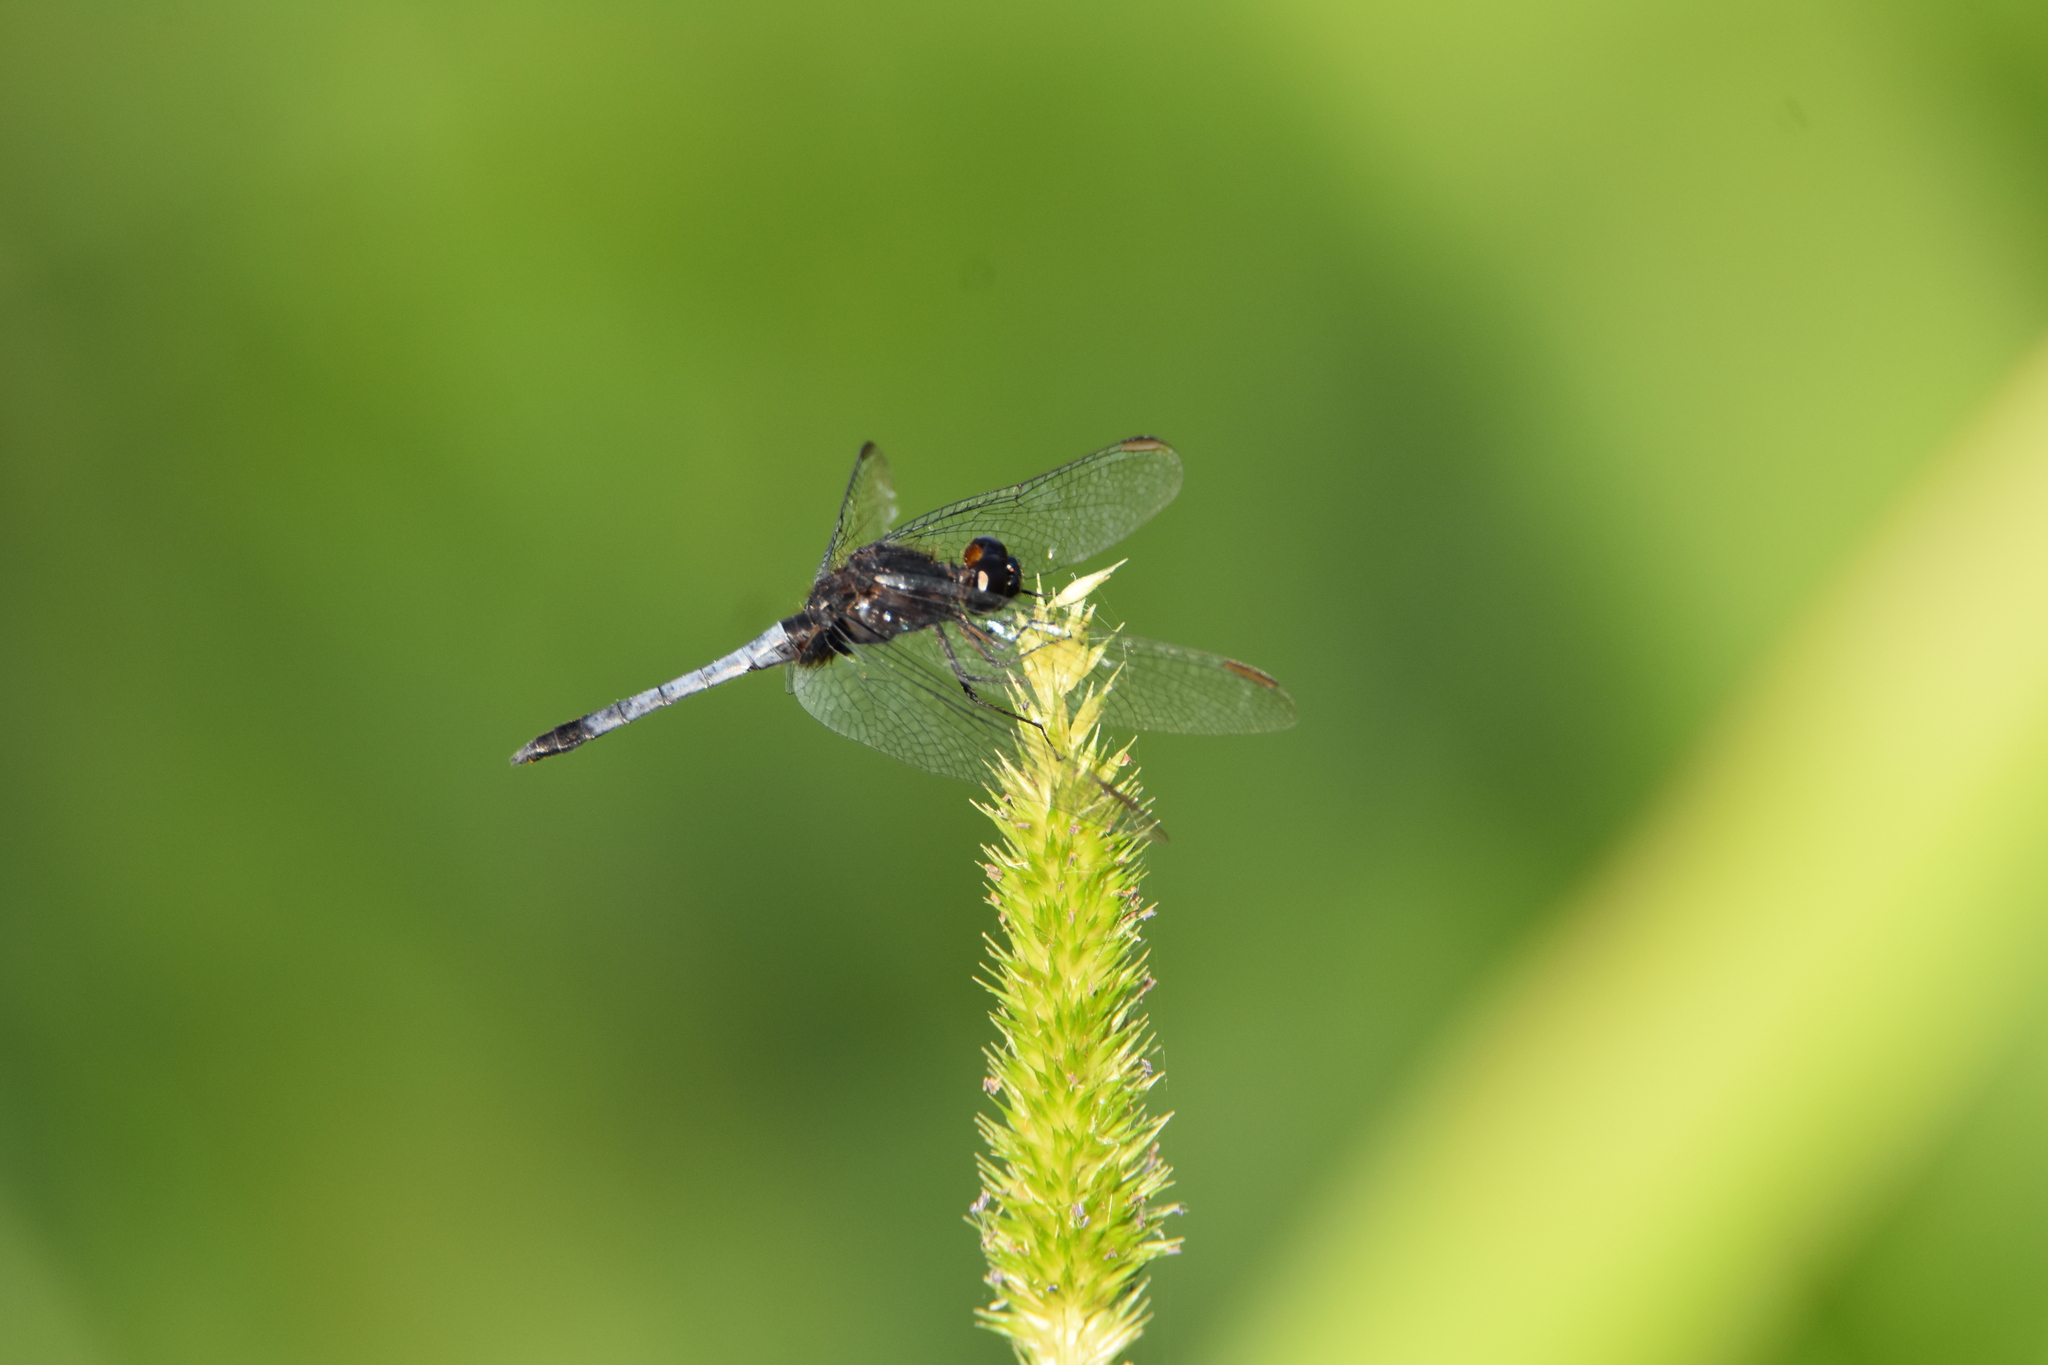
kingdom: Animalia
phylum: Arthropoda
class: Insecta
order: Odonata
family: Libellulidae
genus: Erythrodiplax
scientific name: Erythrodiplax media
